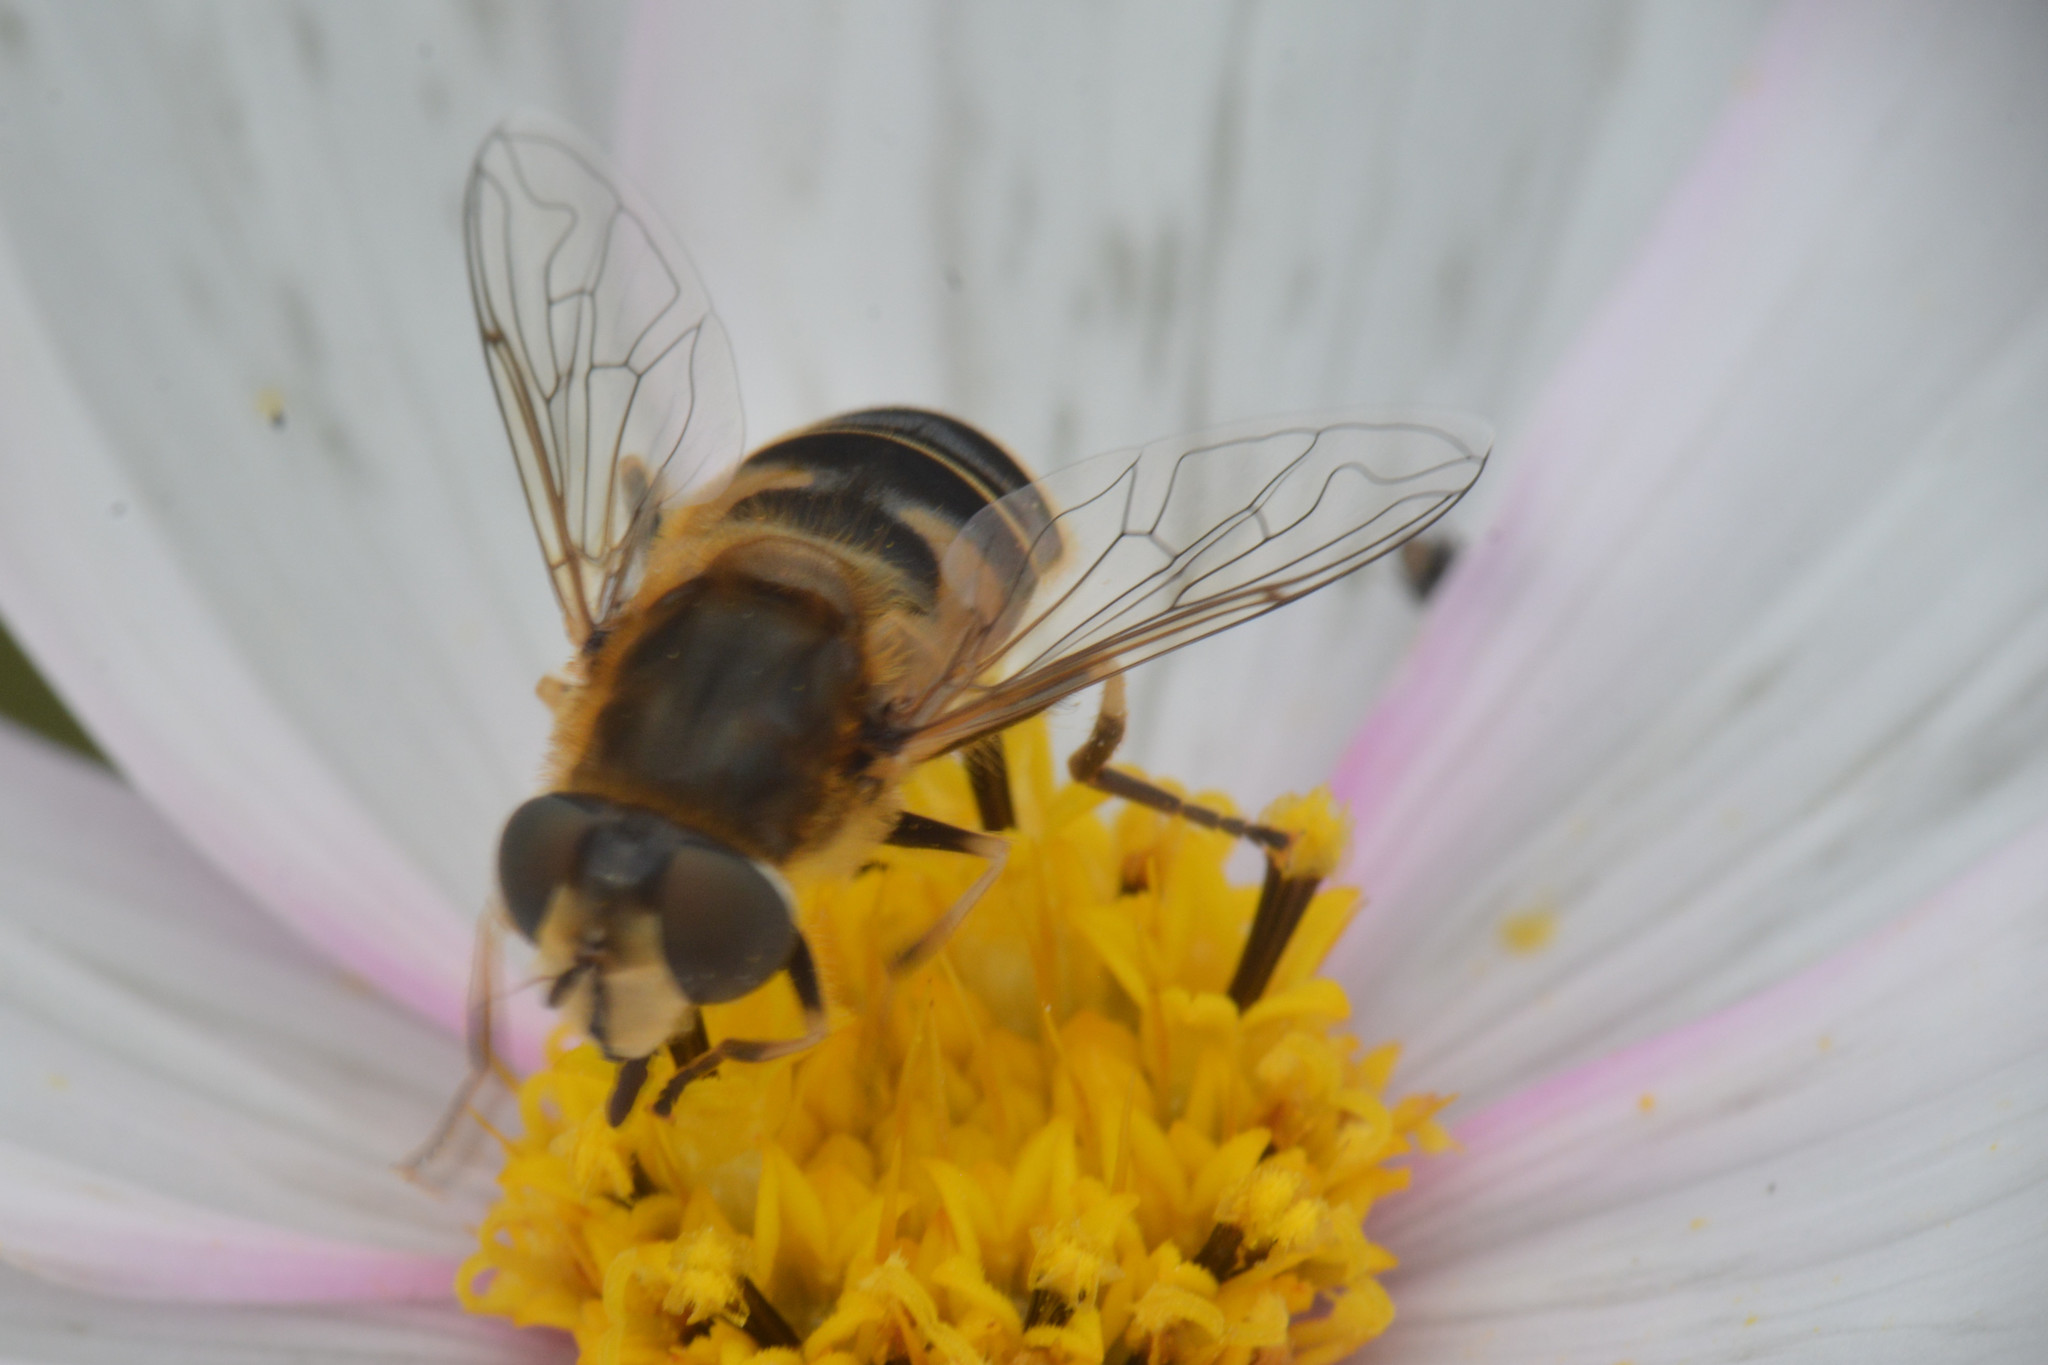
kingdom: Animalia
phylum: Arthropoda
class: Insecta
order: Diptera
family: Syrphidae
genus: Eristalis
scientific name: Eristalis nemorum
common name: Orange-spined drone fly
